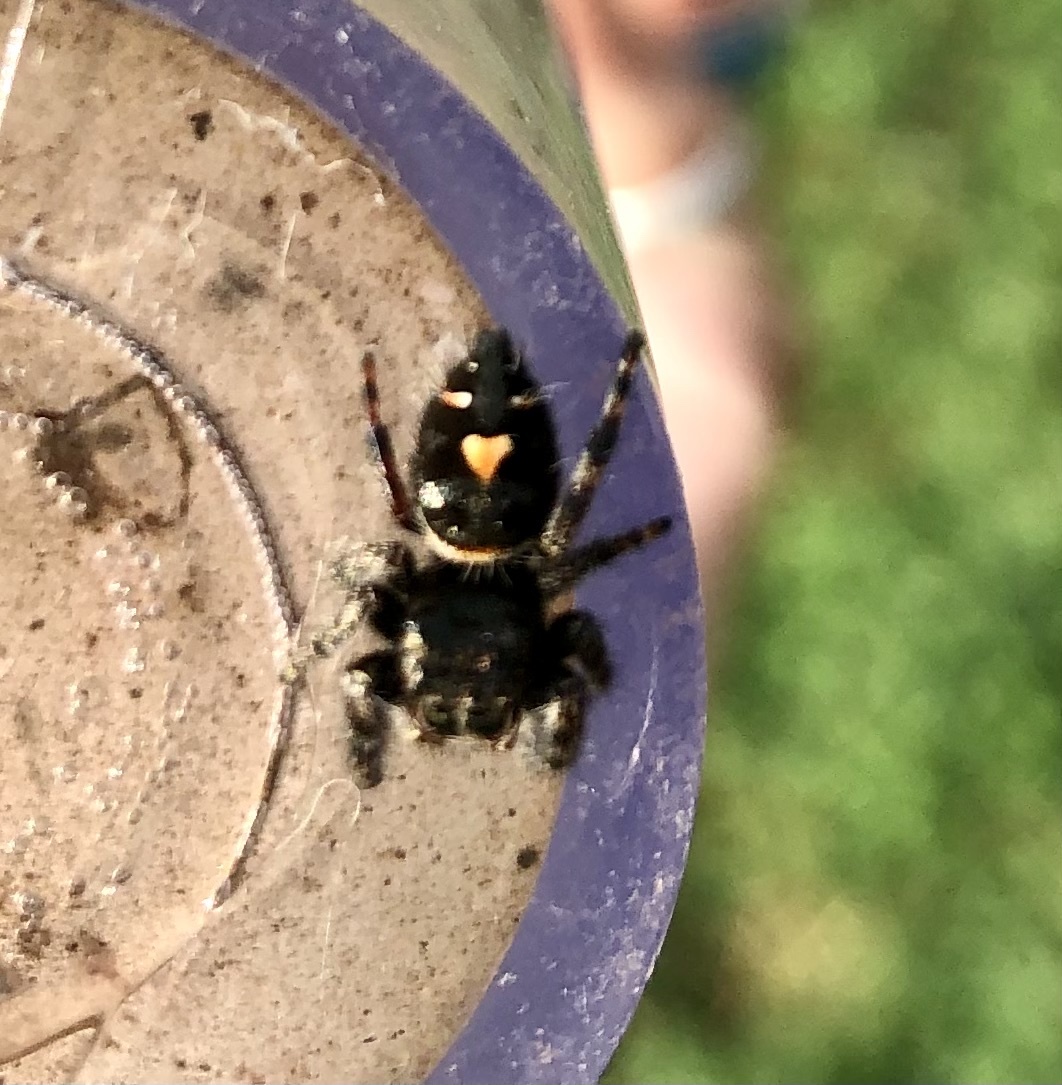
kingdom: Animalia
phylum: Arthropoda
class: Arachnida
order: Araneae
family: Salticidae
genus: Phidippus
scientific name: Phidippus audax
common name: Bold jumper
